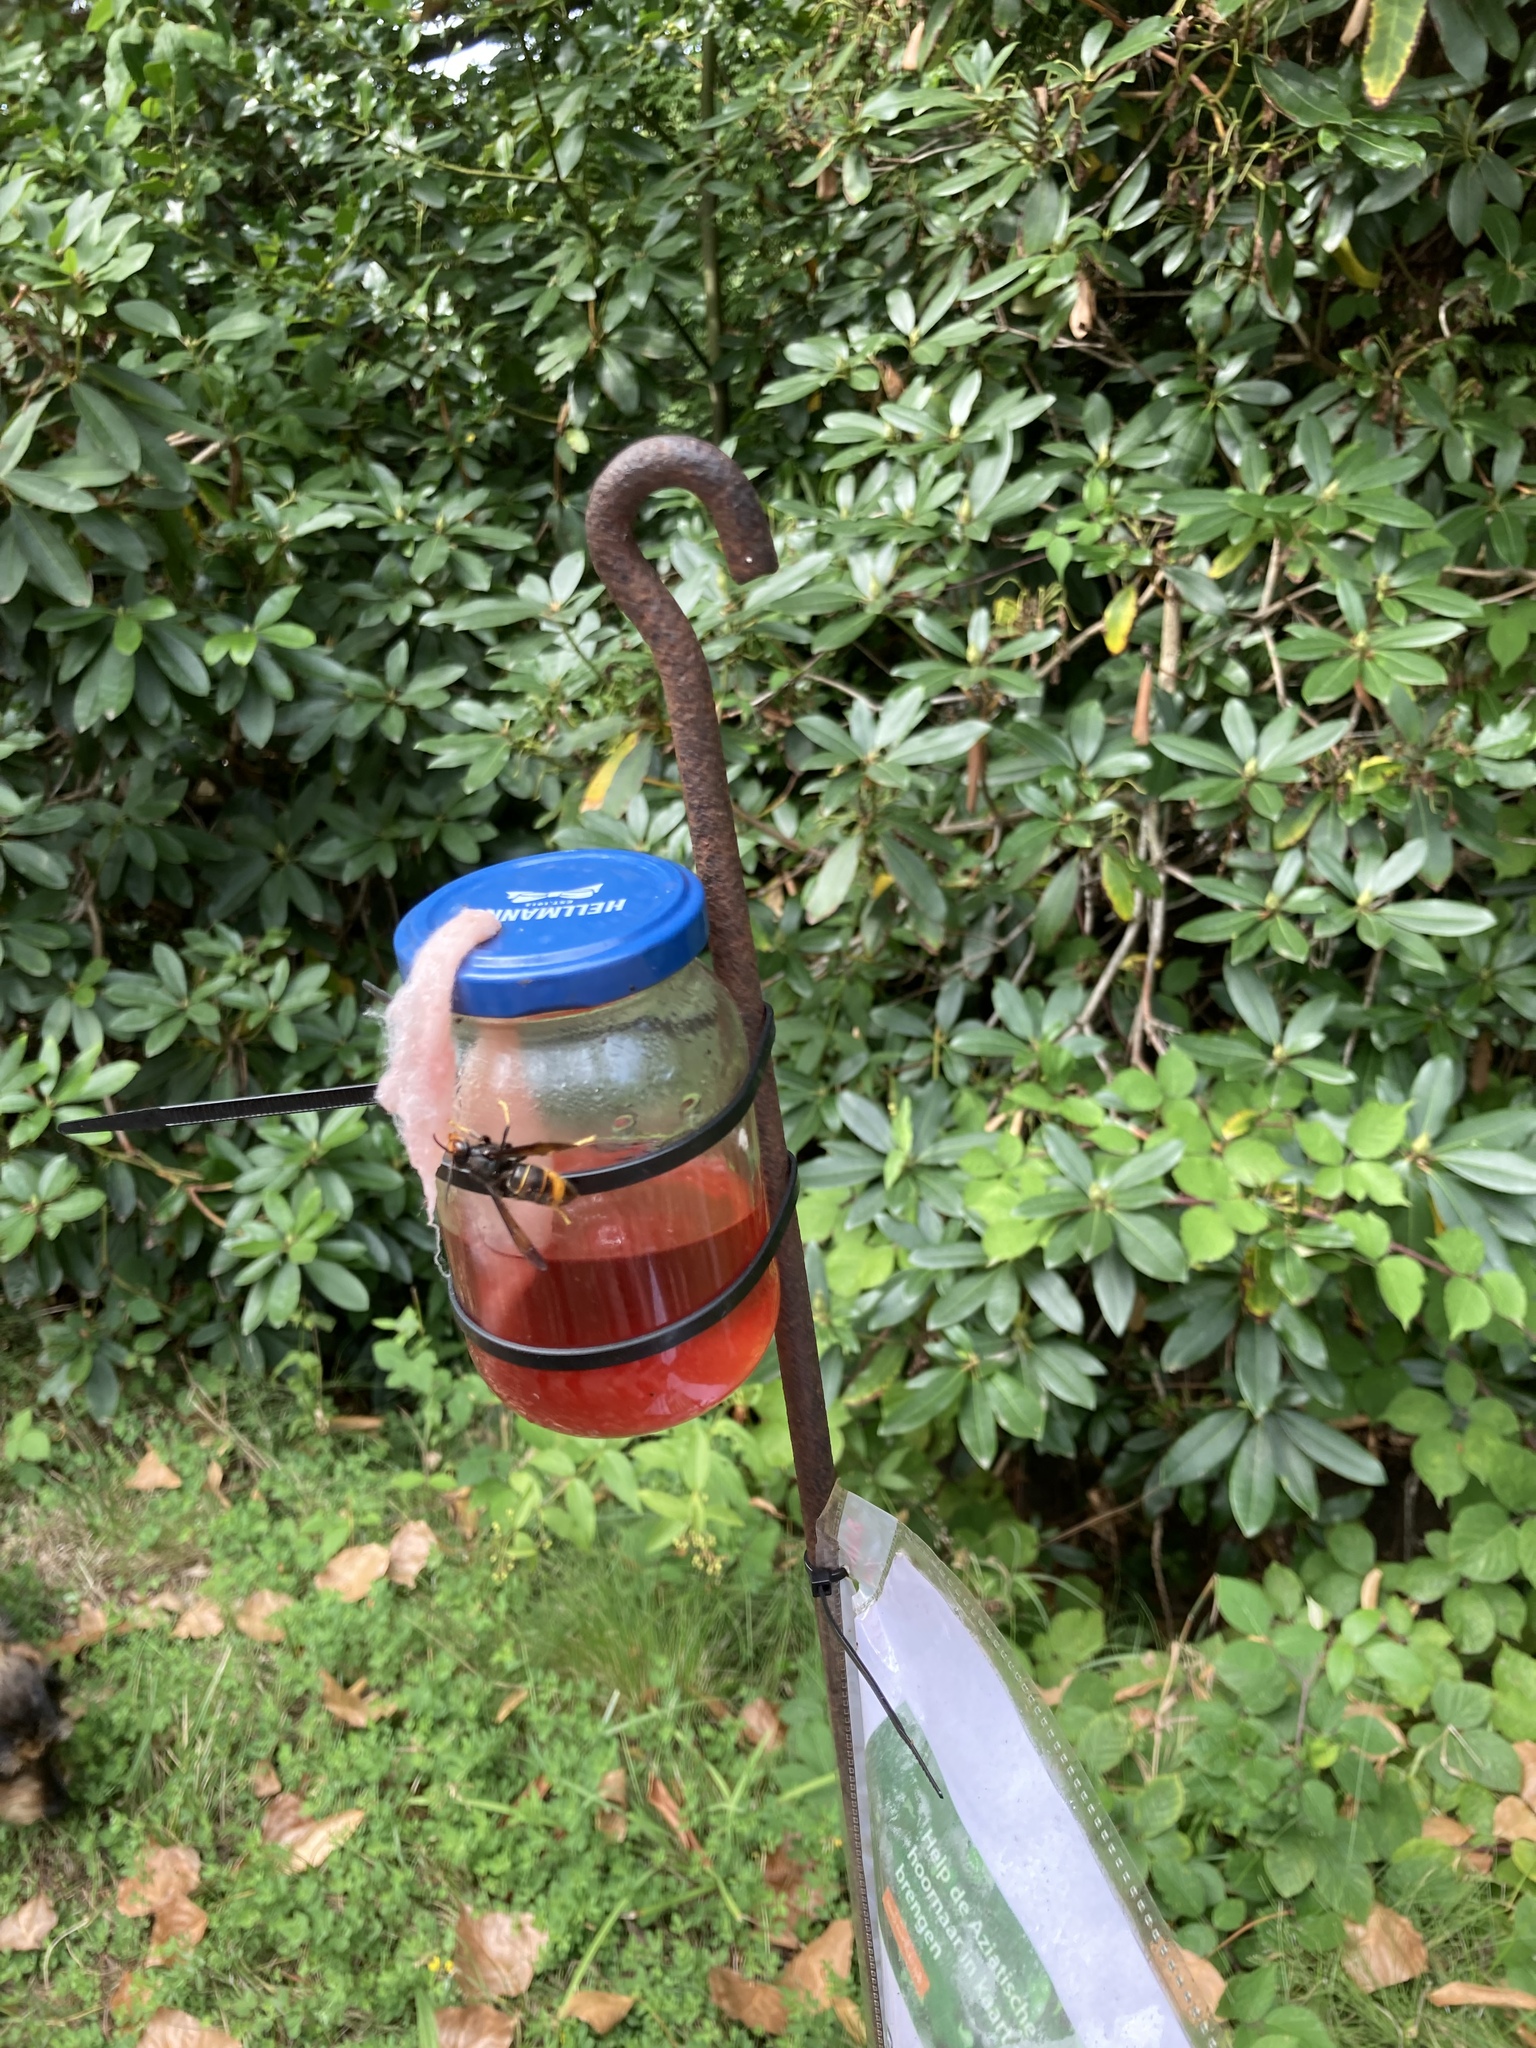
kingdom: Animalia
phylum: Arthropoda
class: Insecta
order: Hymenoptera
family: Vespidae
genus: Vespa
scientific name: Vespa velutina
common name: Asian hornet
